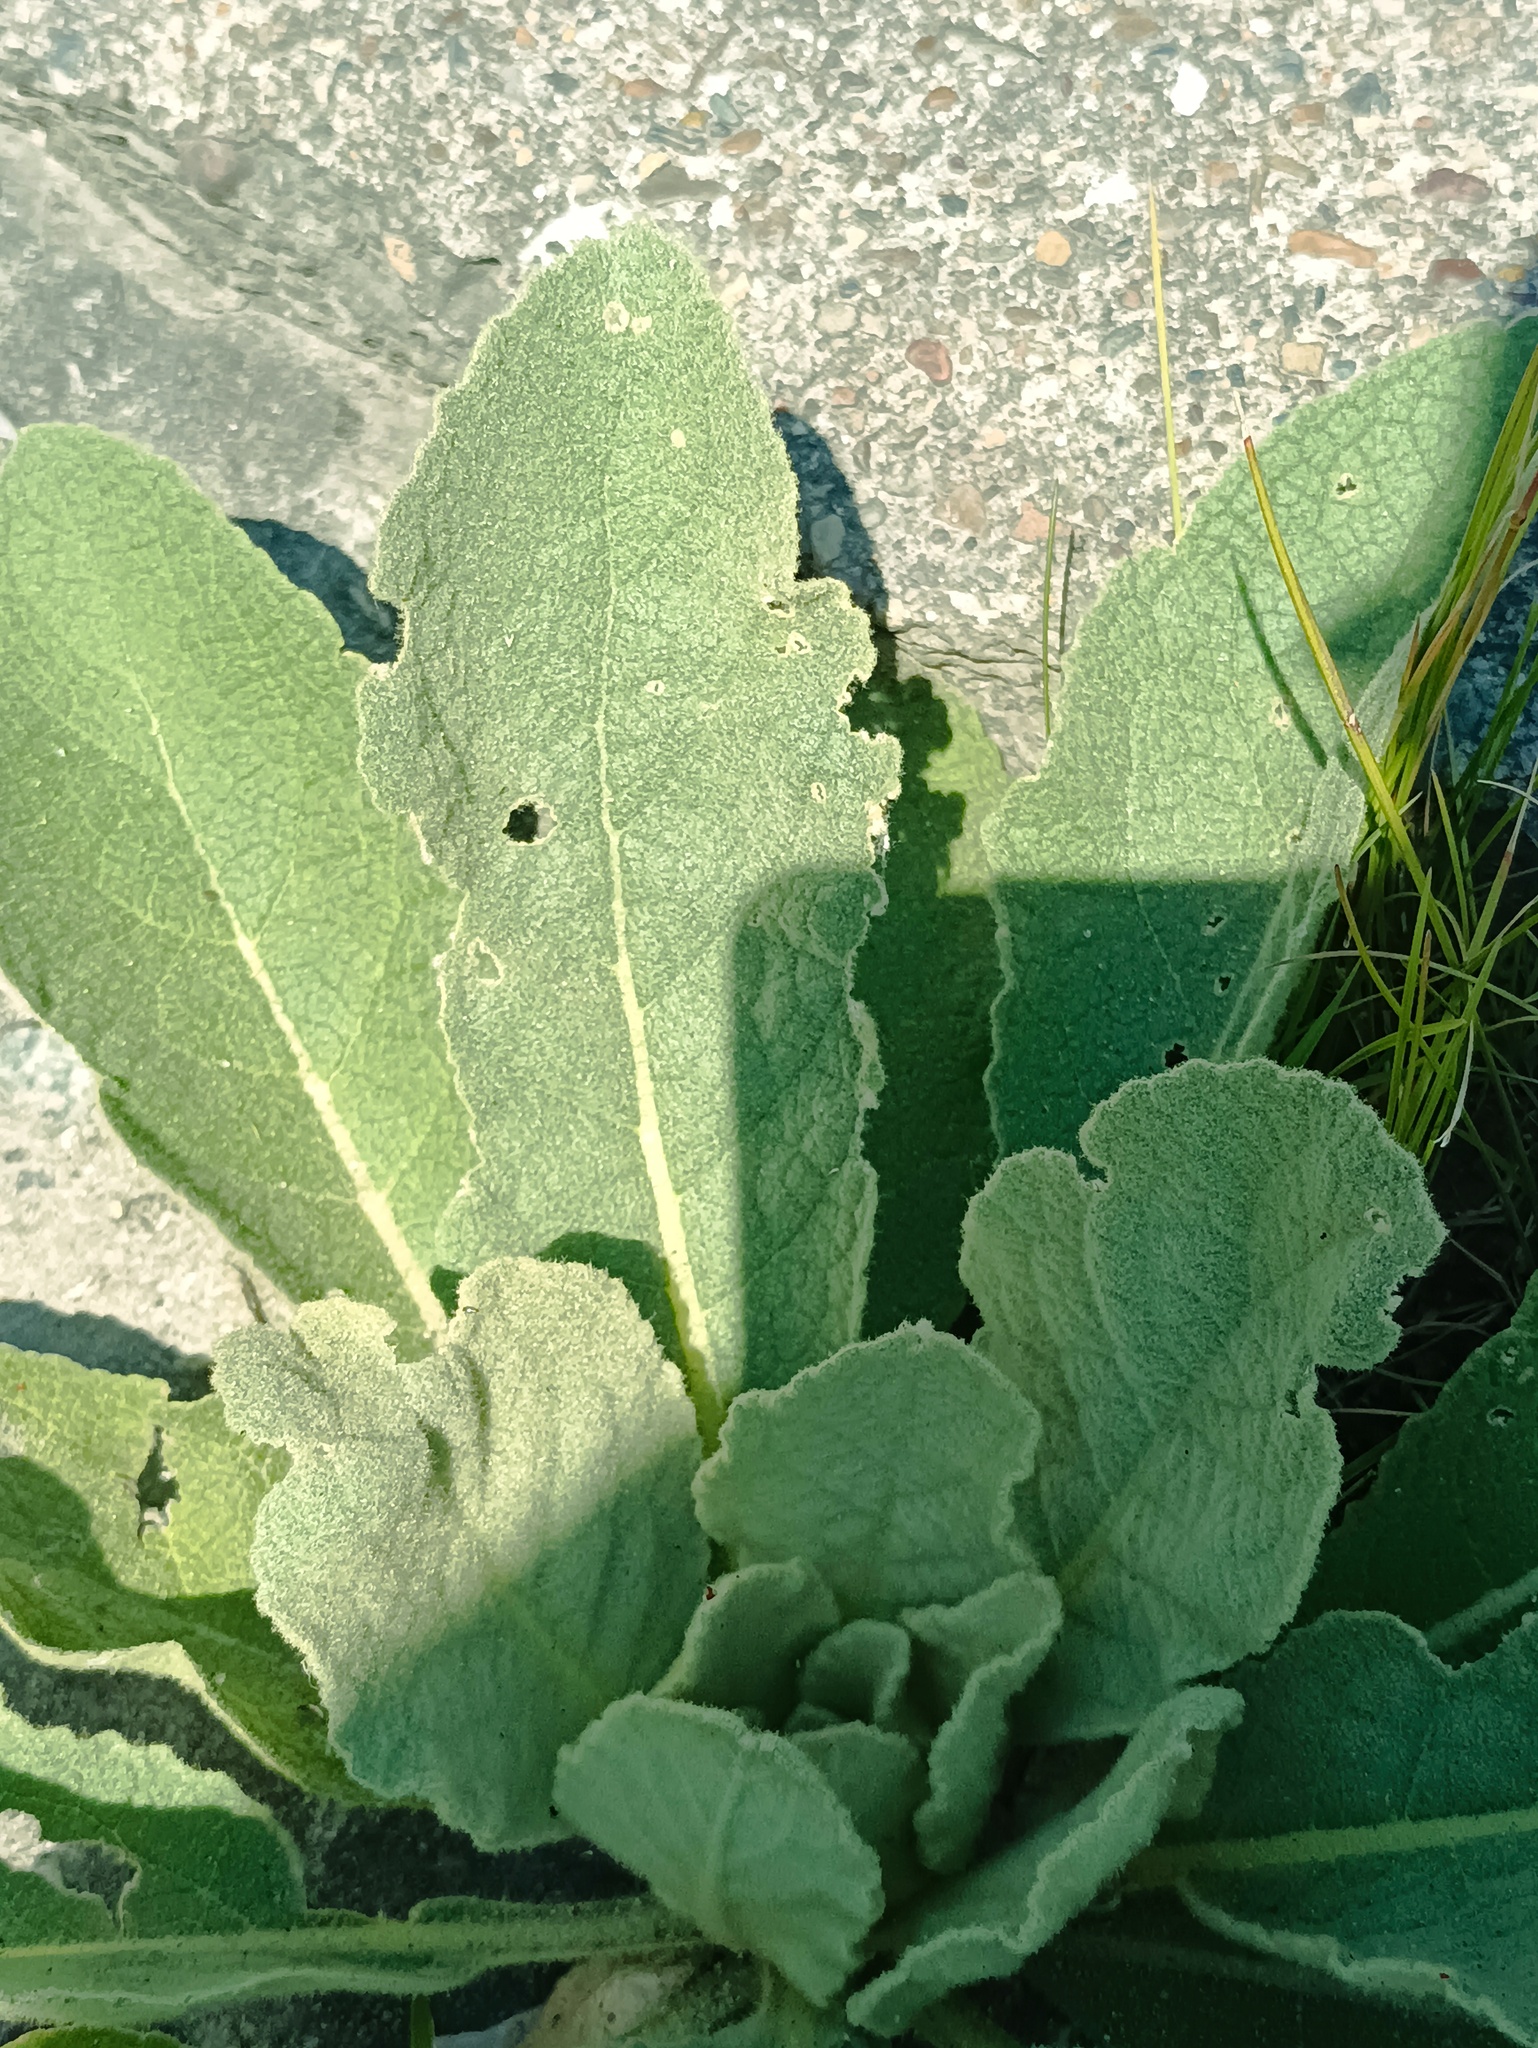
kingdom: Plantae
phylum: Tracheophyta
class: Magnoliopsida
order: Lamiales
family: Scrophulariaceae
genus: Verbascum
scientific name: Verbascum thapsus
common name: Common mullein
